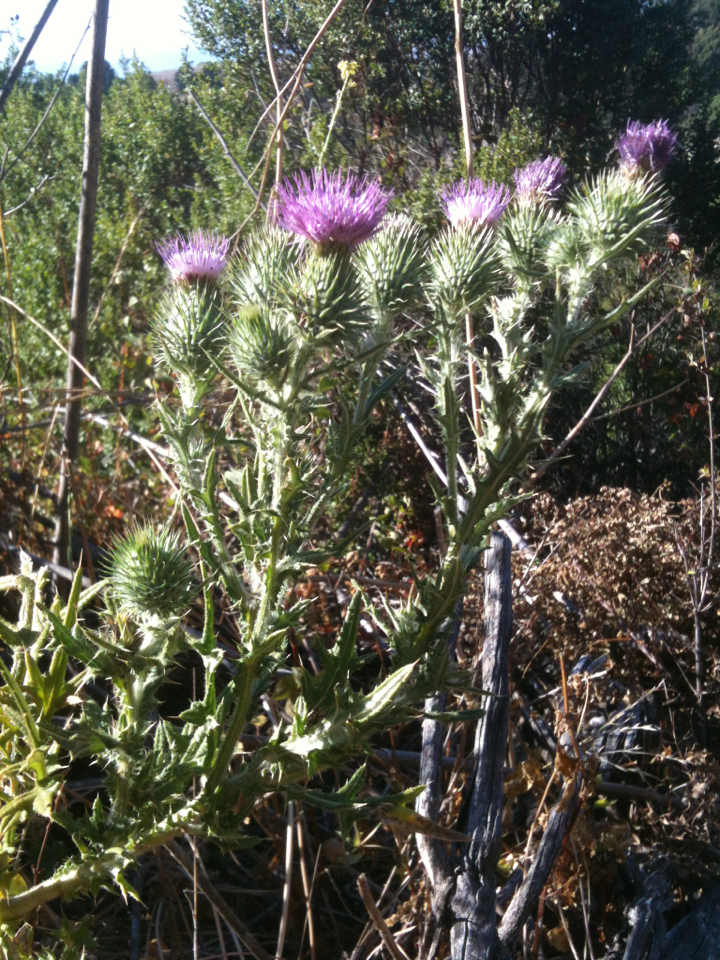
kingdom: Plantae
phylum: Tracheophyta
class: Magnoliopsida
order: Asterales
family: Asteraceae
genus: Cirsium
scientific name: Cirsium vulgare
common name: Bull thistle
